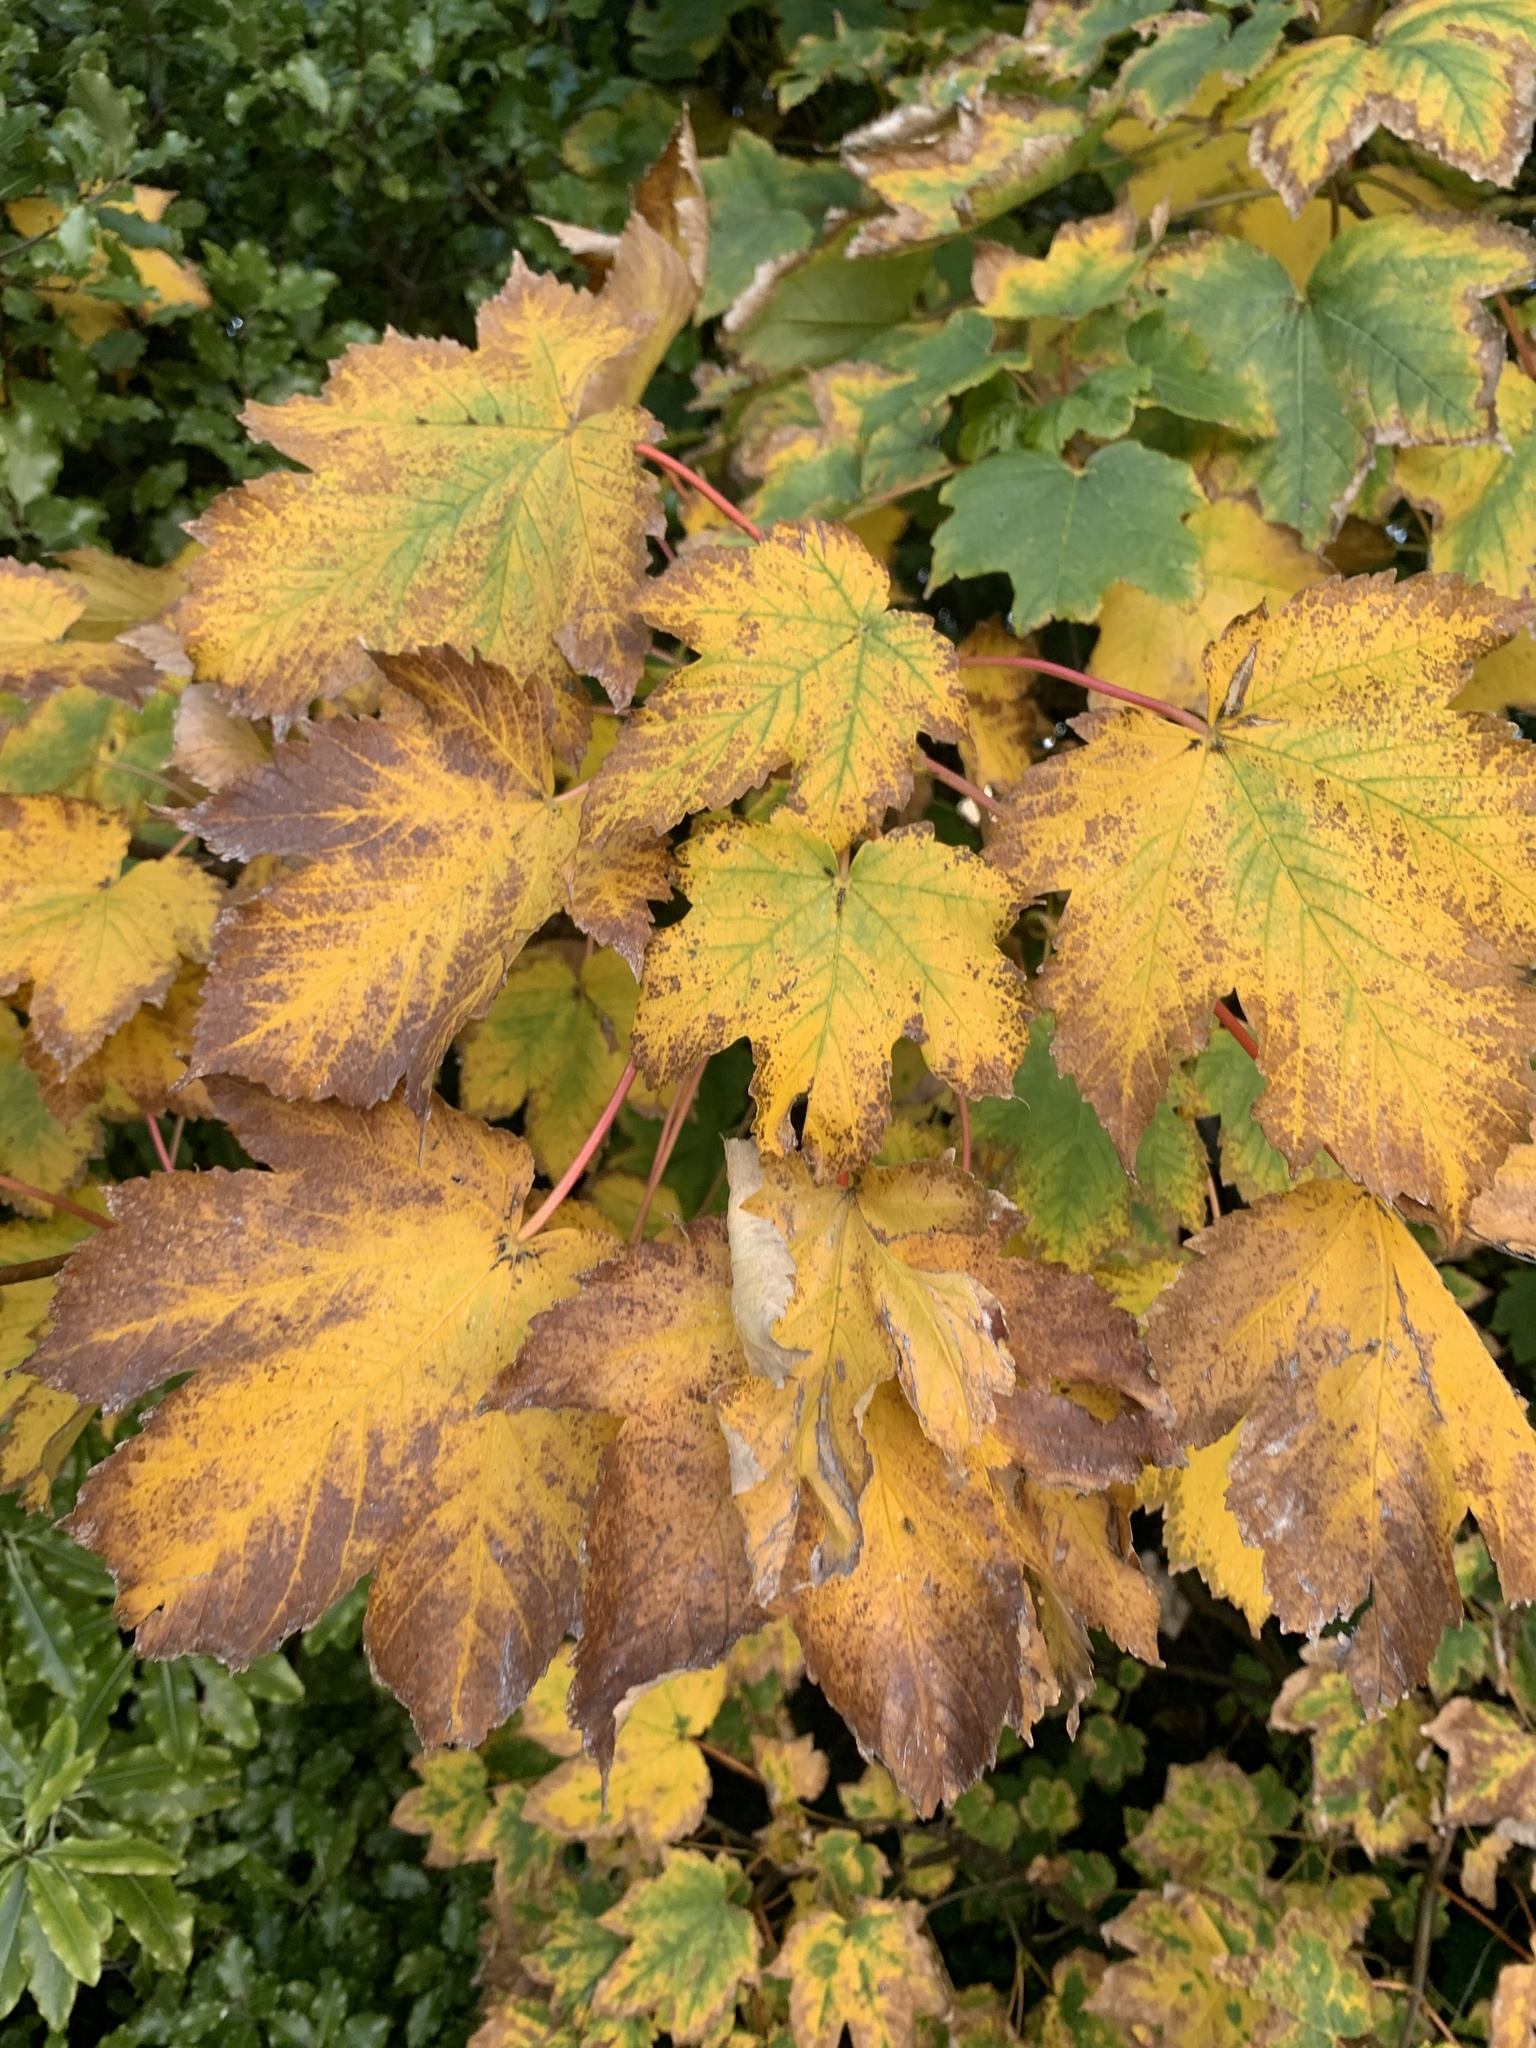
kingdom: Plantae
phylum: Tracheophyta
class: Magnoliopsida
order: Sapindales
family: Sapindaceae
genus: Acer
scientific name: Acer pseudoplatanus
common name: Sycamore
